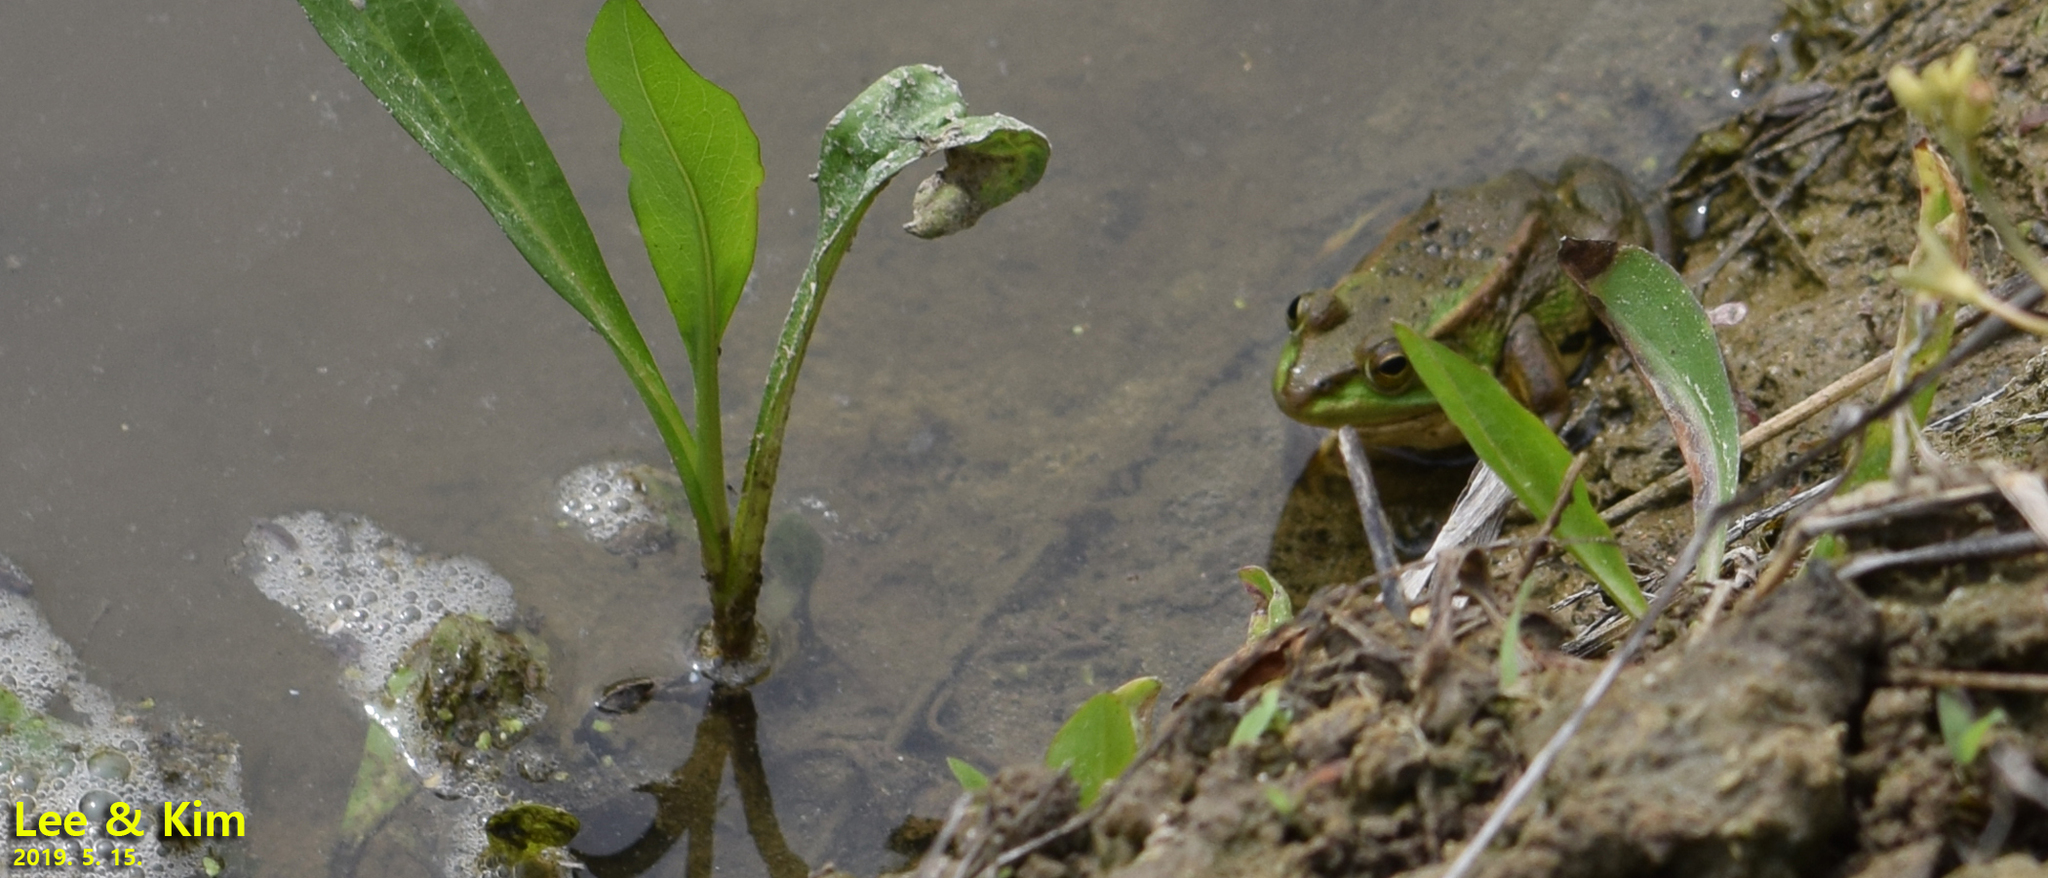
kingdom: Animalia
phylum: Chordata
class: Amphibia
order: Anura
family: Ranidae
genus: Pelophylax
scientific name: Pelophylax chosenicus
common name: Gold-spotted pond frog
